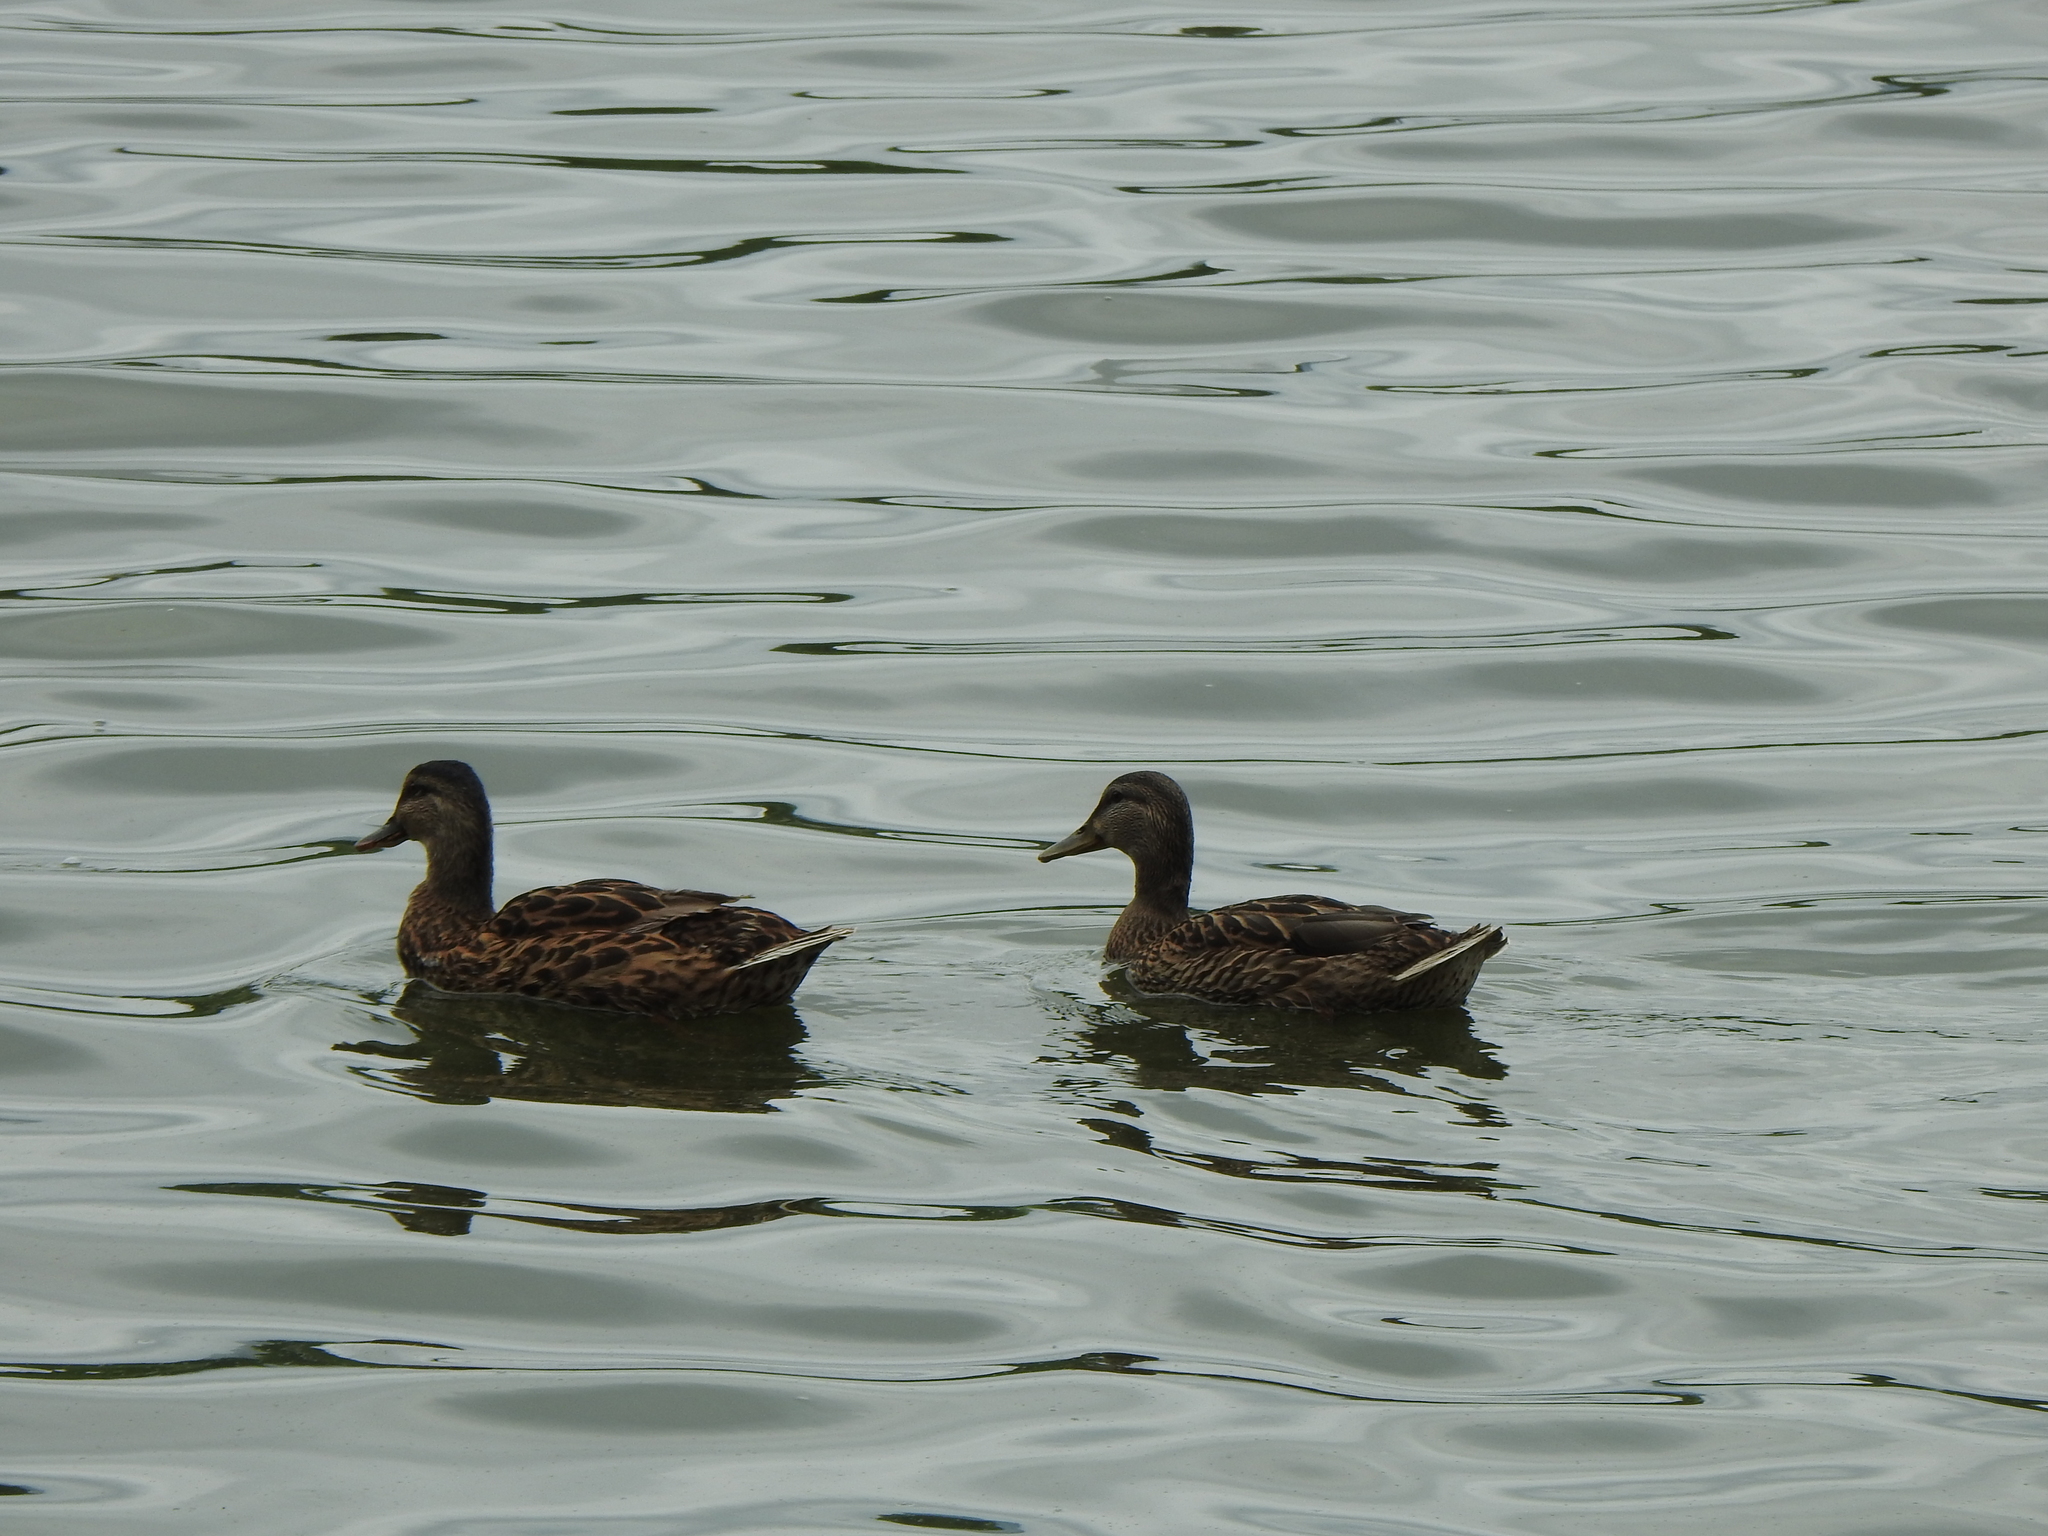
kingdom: Animalia
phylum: Chordata
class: Aves
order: Anseriformes
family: Anatidae
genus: Anas
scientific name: Anas platyrhynchos
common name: Mallard
